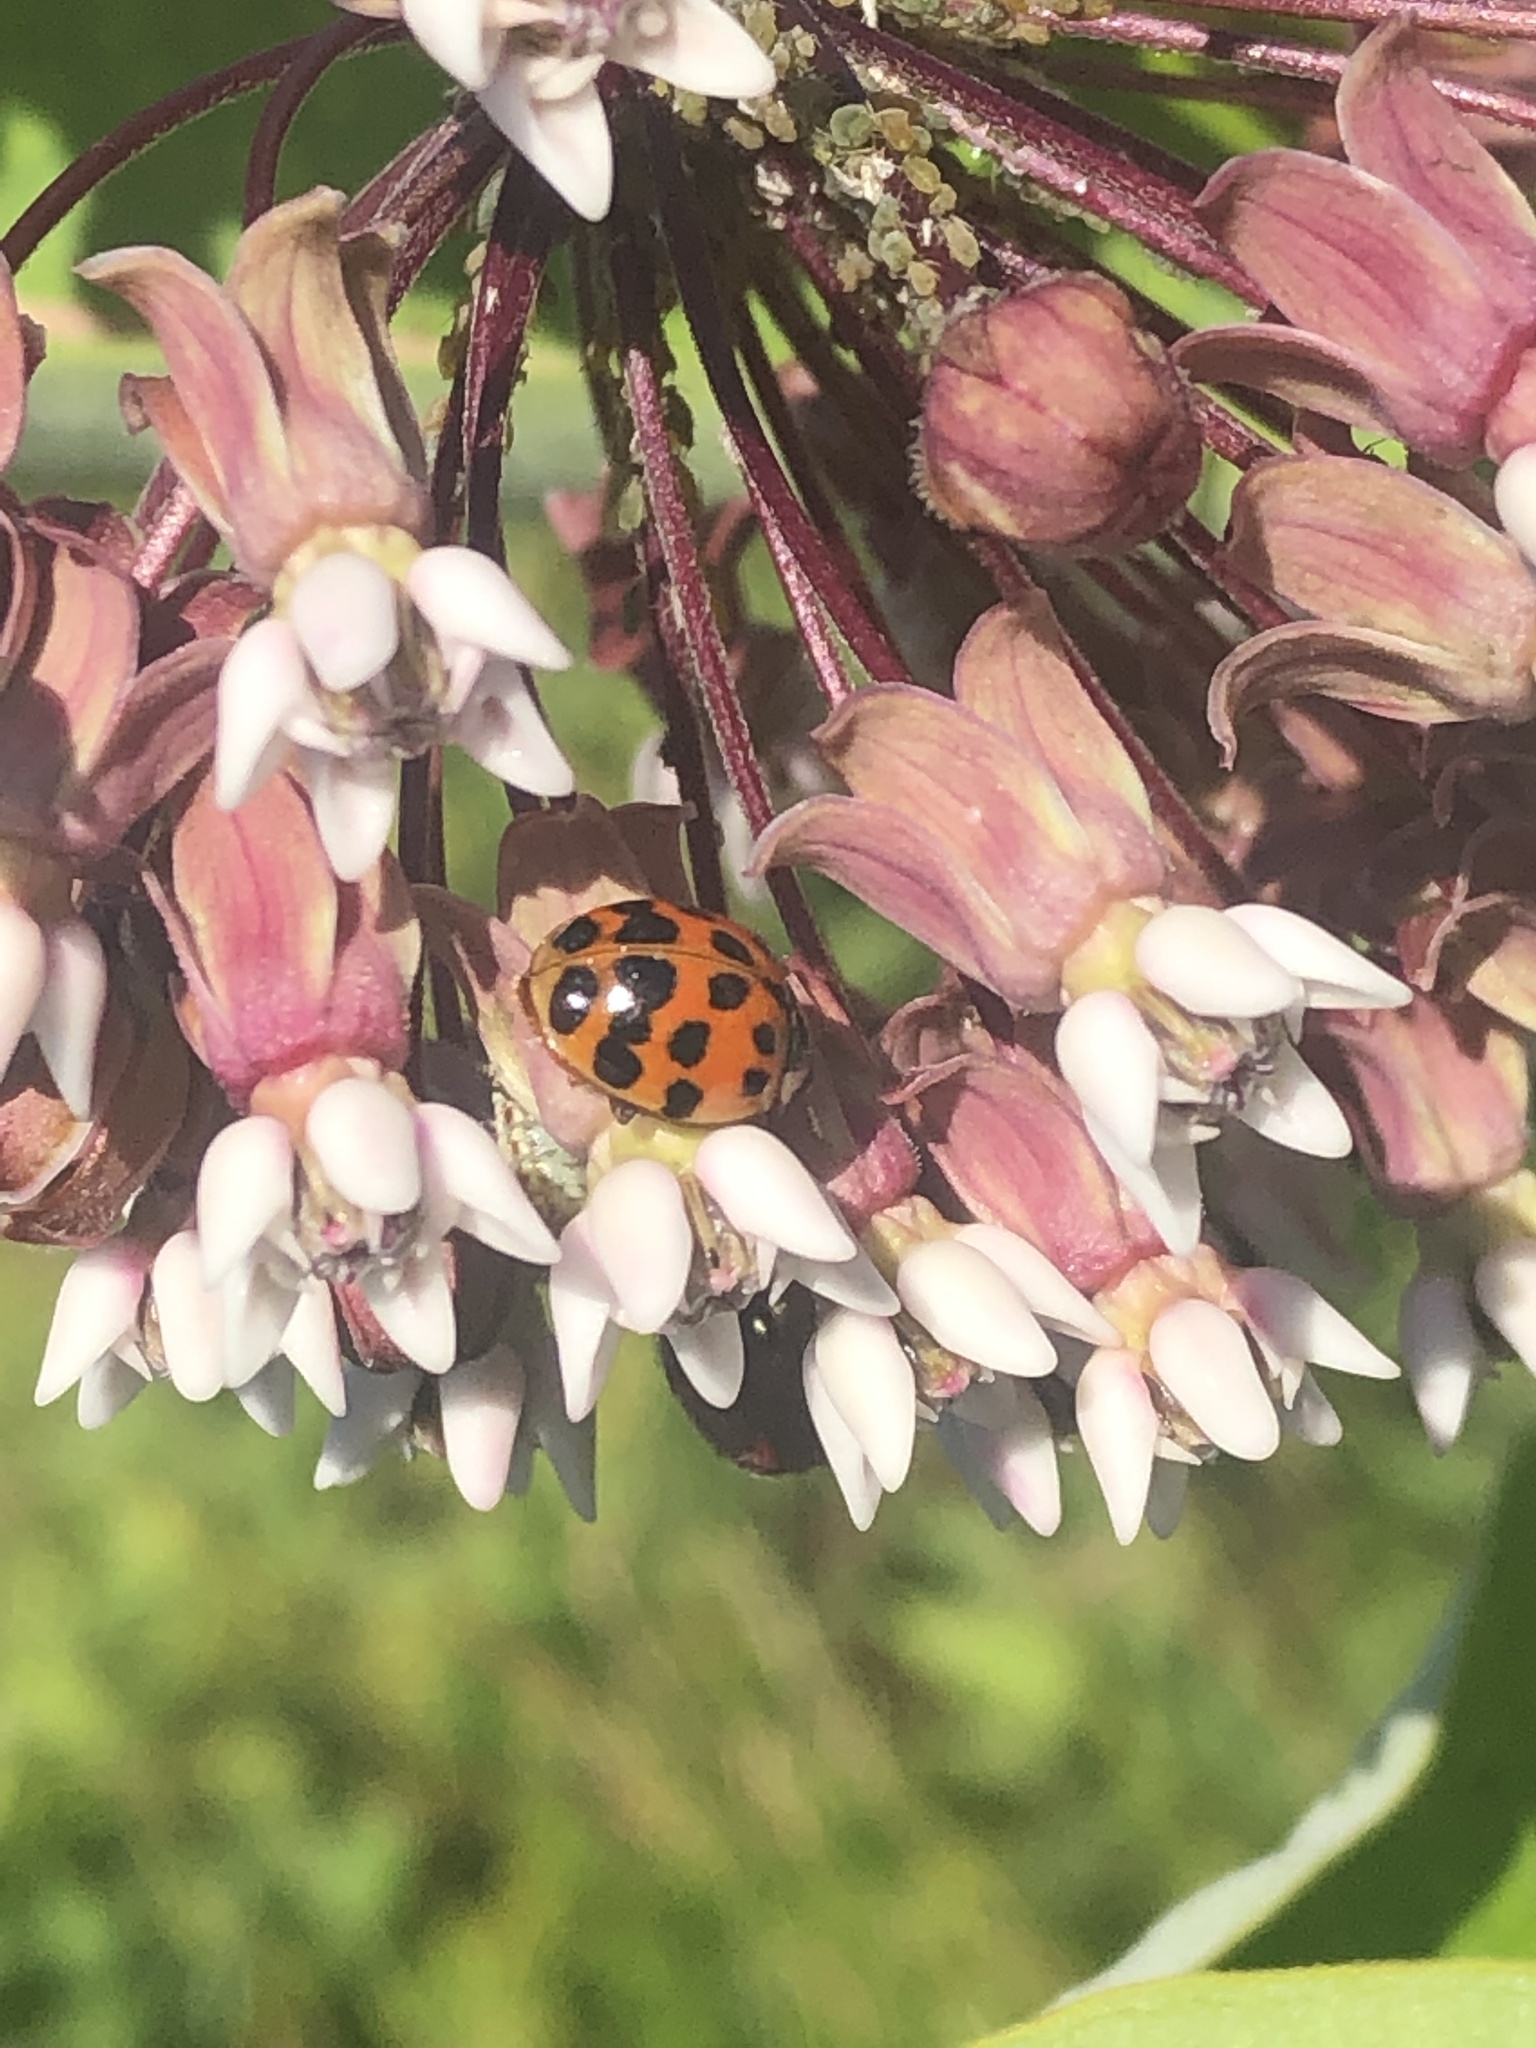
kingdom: Animalia
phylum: Arthropoda
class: Insecta
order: Coleoptera
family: Coccinellidae
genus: Harmonia
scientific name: Harmonia axyridis
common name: Harlequin ladybird
